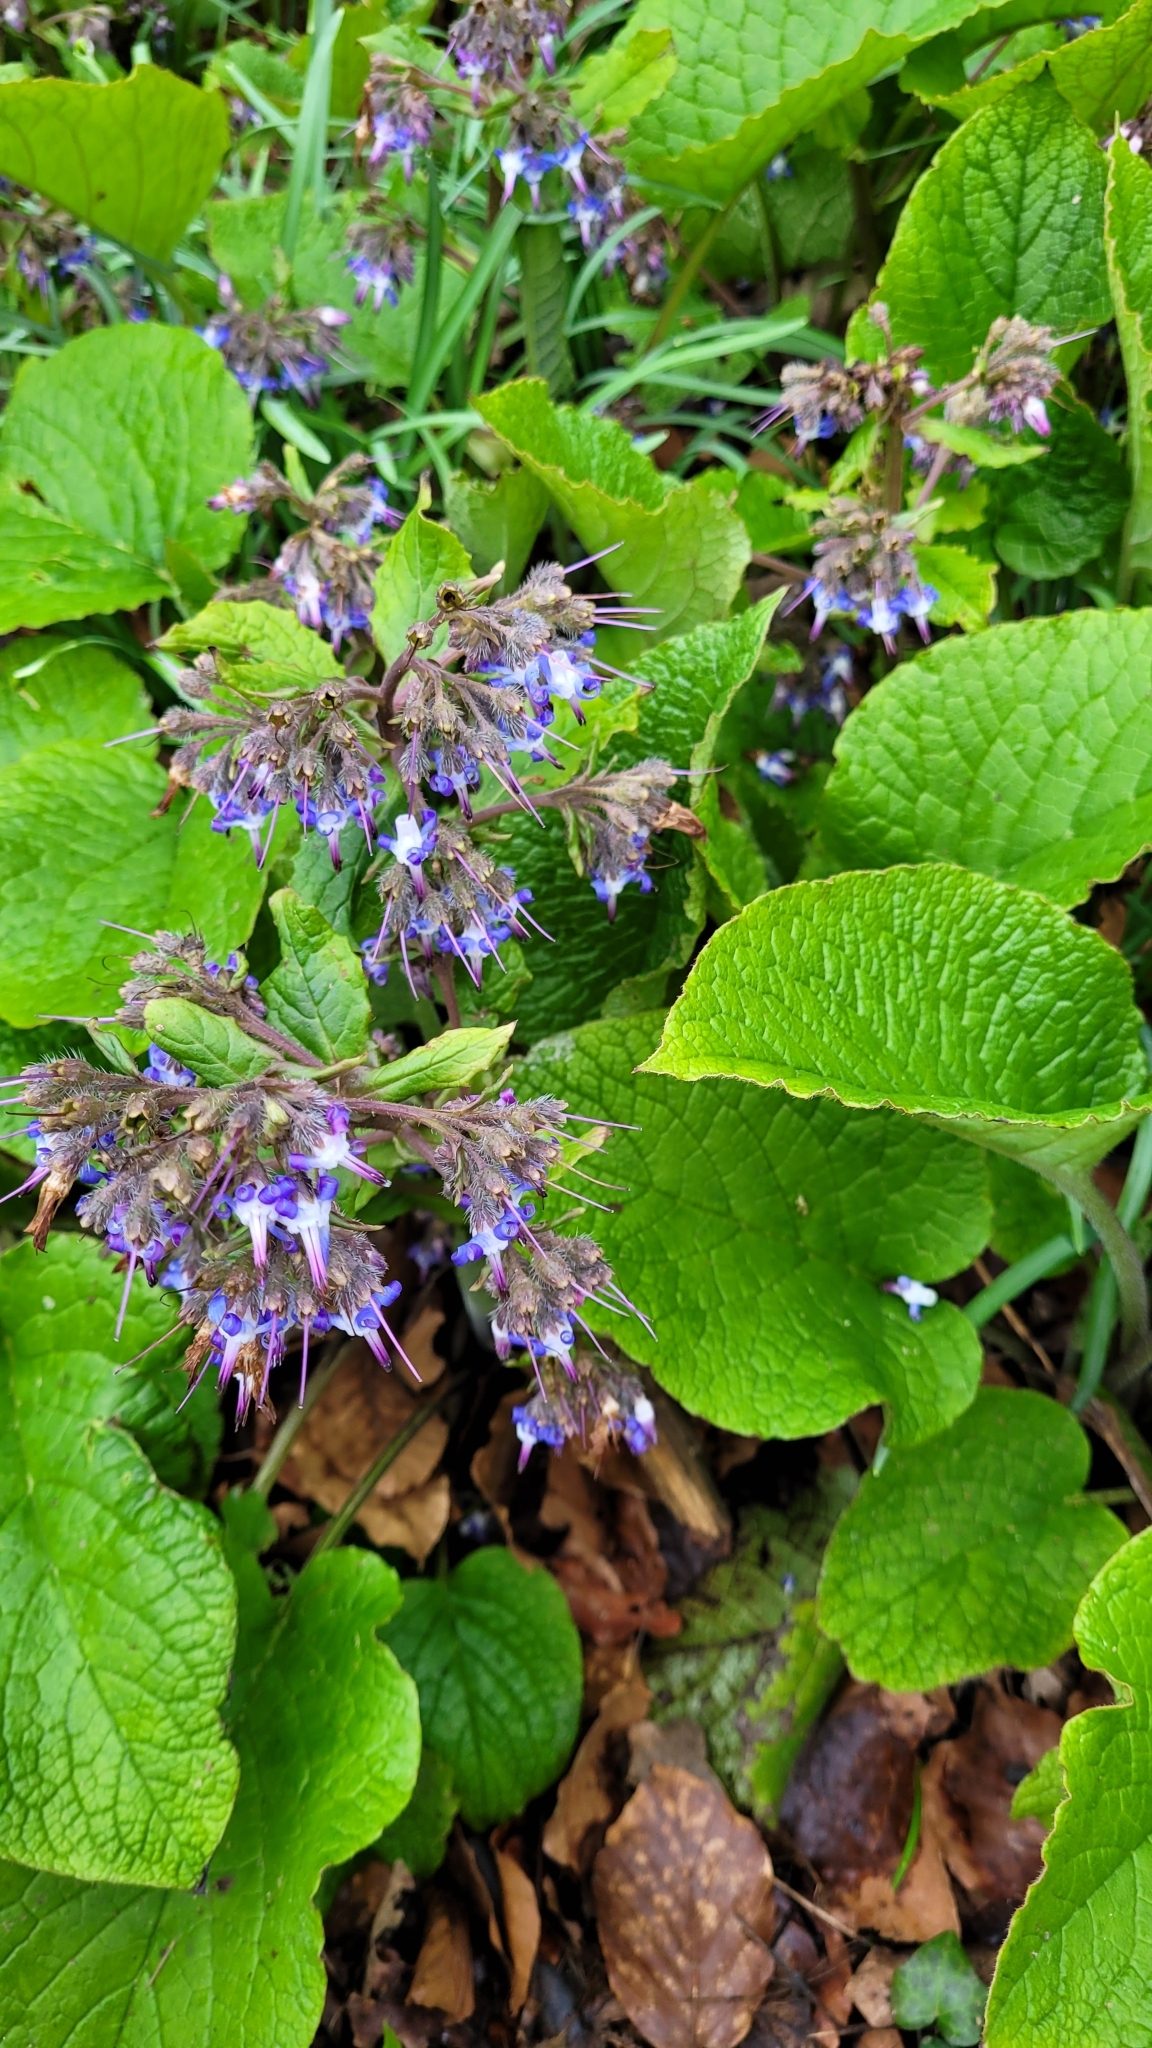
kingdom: Plantae
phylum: Tracheophyta
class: Magnoliopsida
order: Boraginales
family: Boraginaceae
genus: Trachystemon
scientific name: Trachystemon orientale
